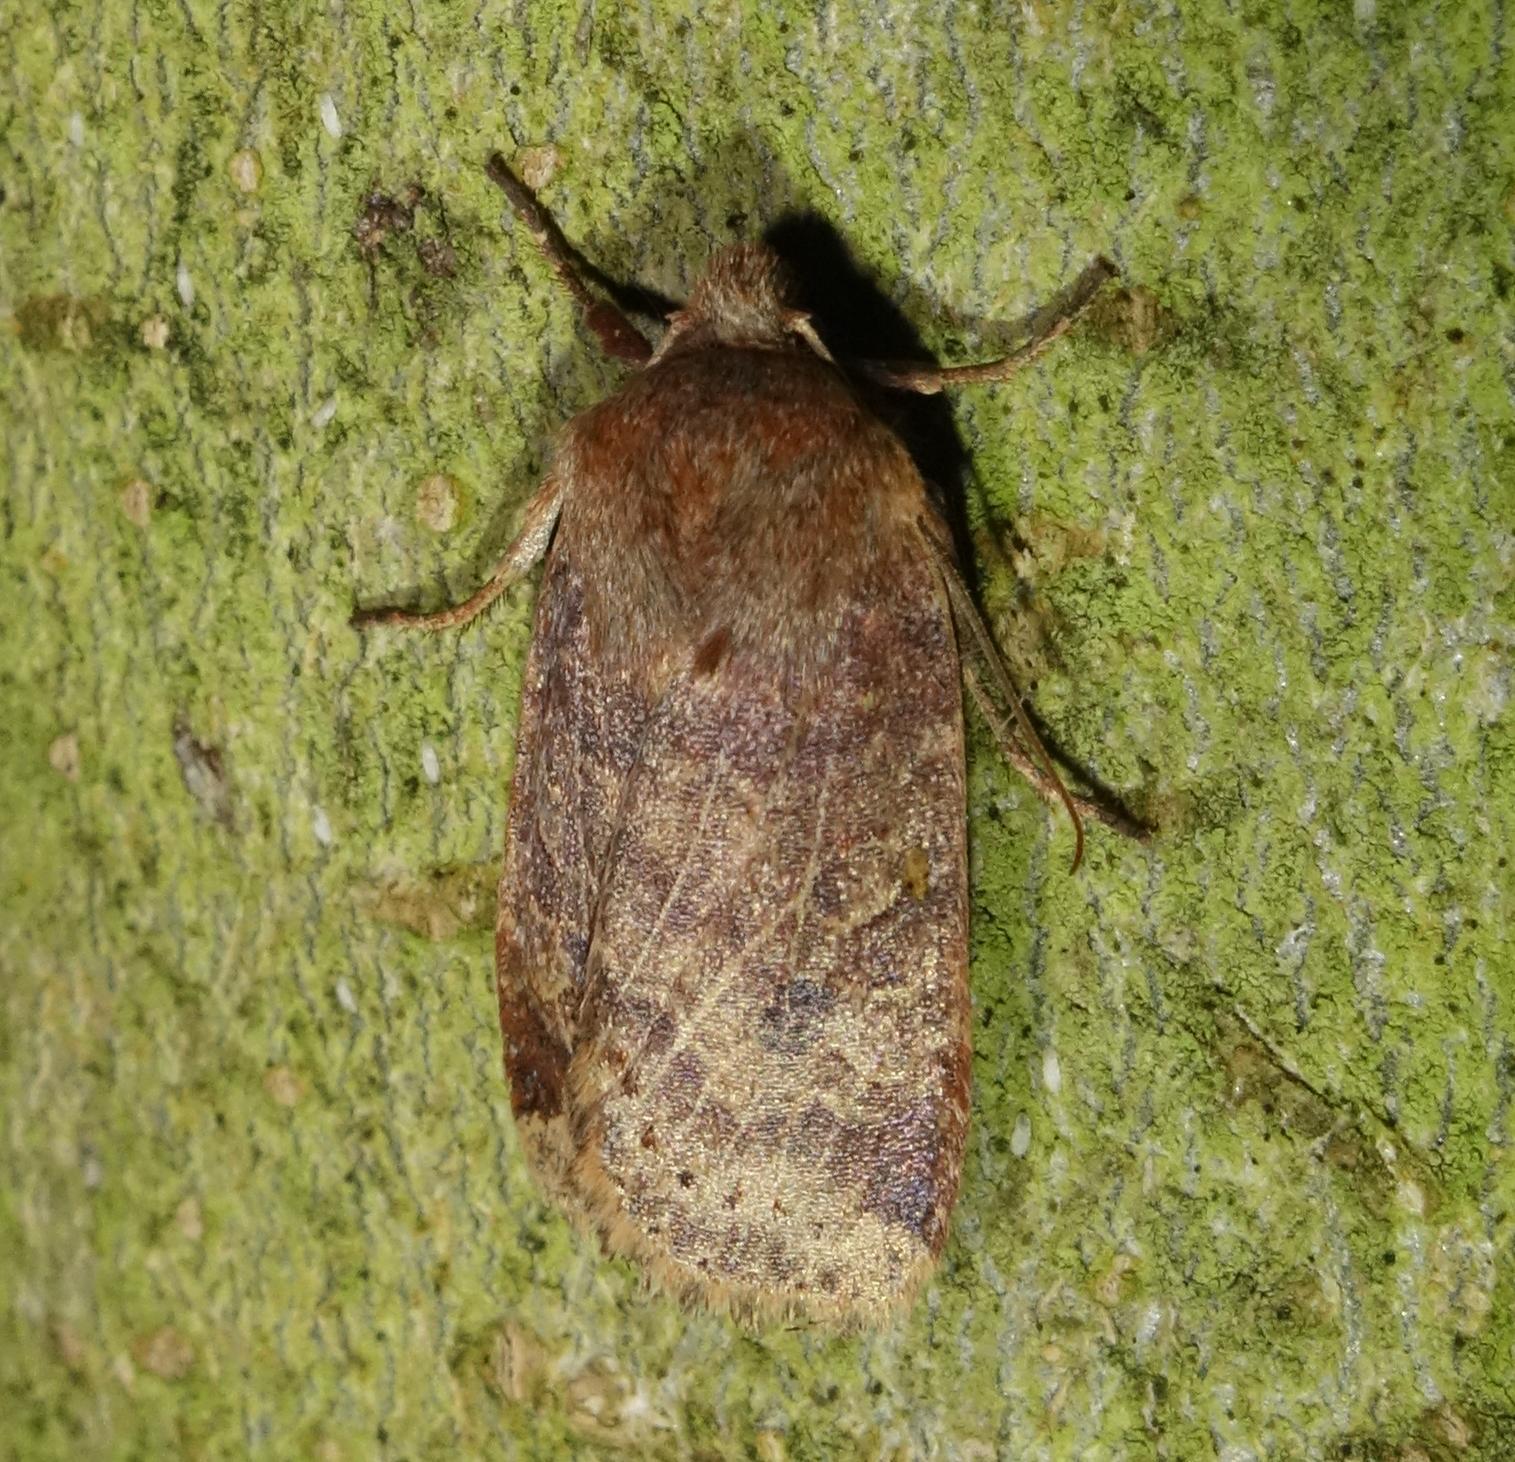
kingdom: Animalia
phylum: Arthropoda
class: Insecta
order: Lepidoptera
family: Noctuidae
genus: Conistra
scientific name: Conistra vaccinii
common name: Chestnut
